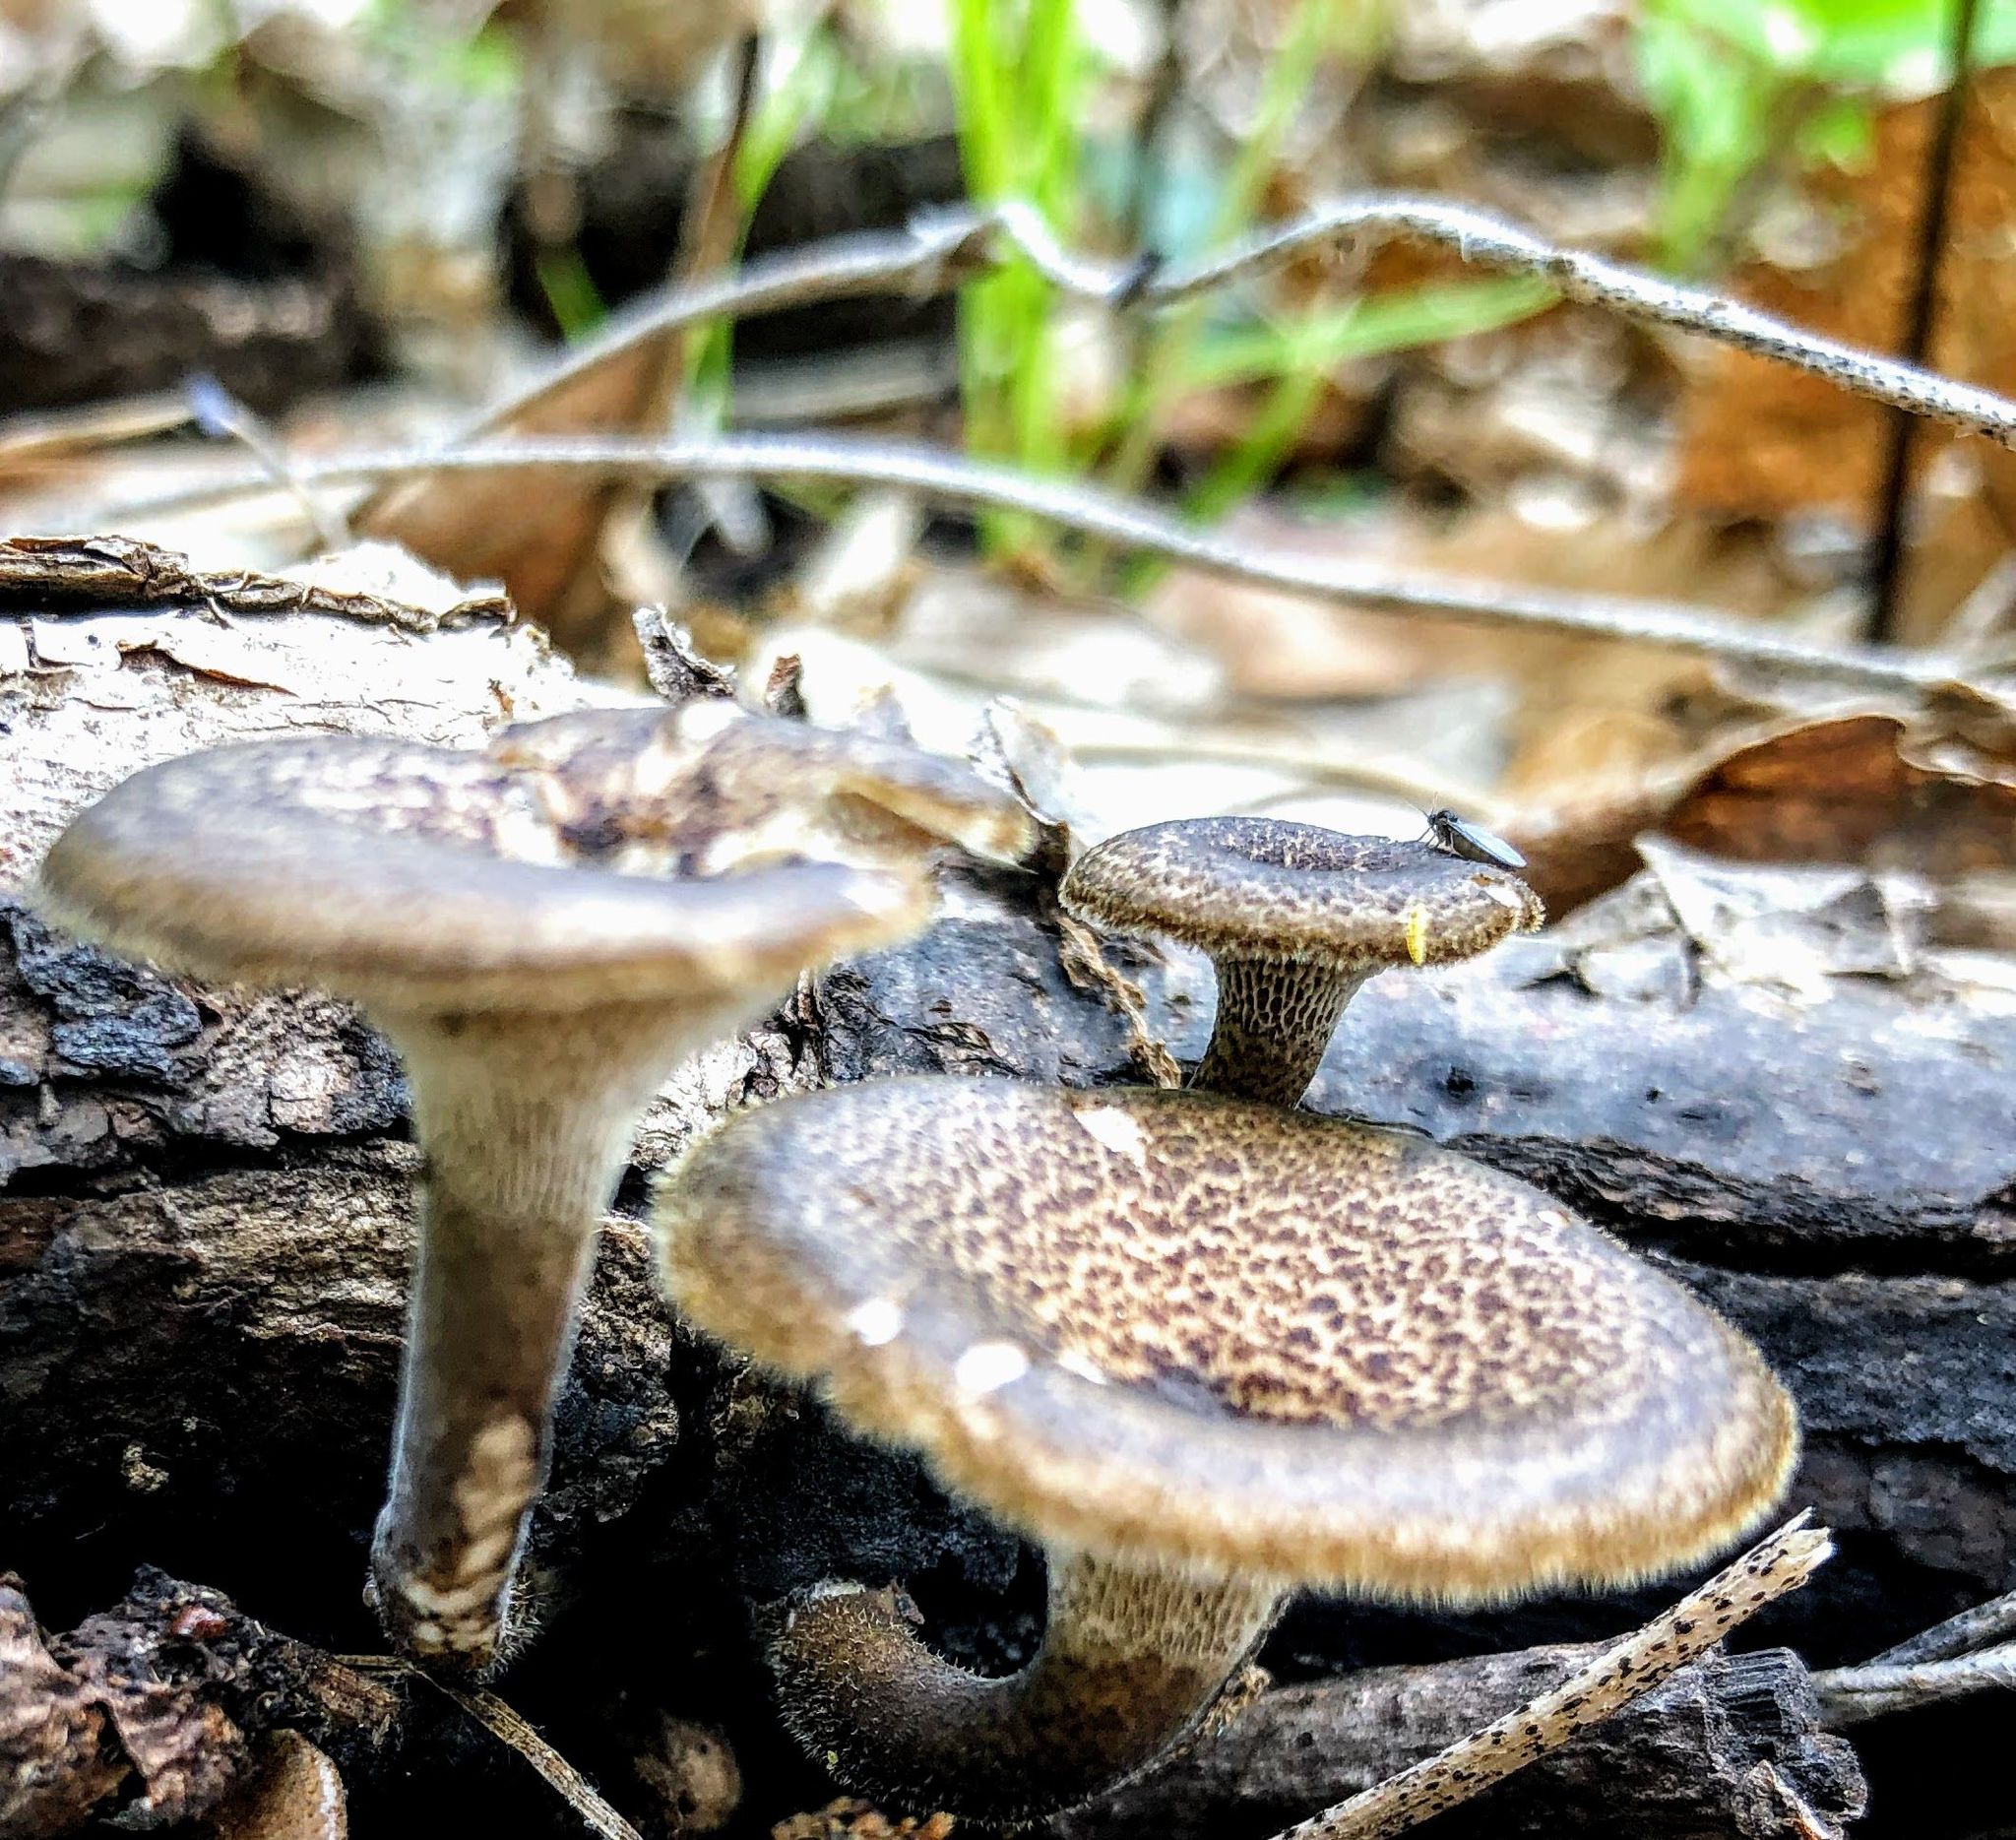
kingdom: Fungi
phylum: Basidiomycota
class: Agaricomycetes
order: Polyporales
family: Polyporaceae
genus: Lentinus
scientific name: Lentinus arcularius
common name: Spring polypore
